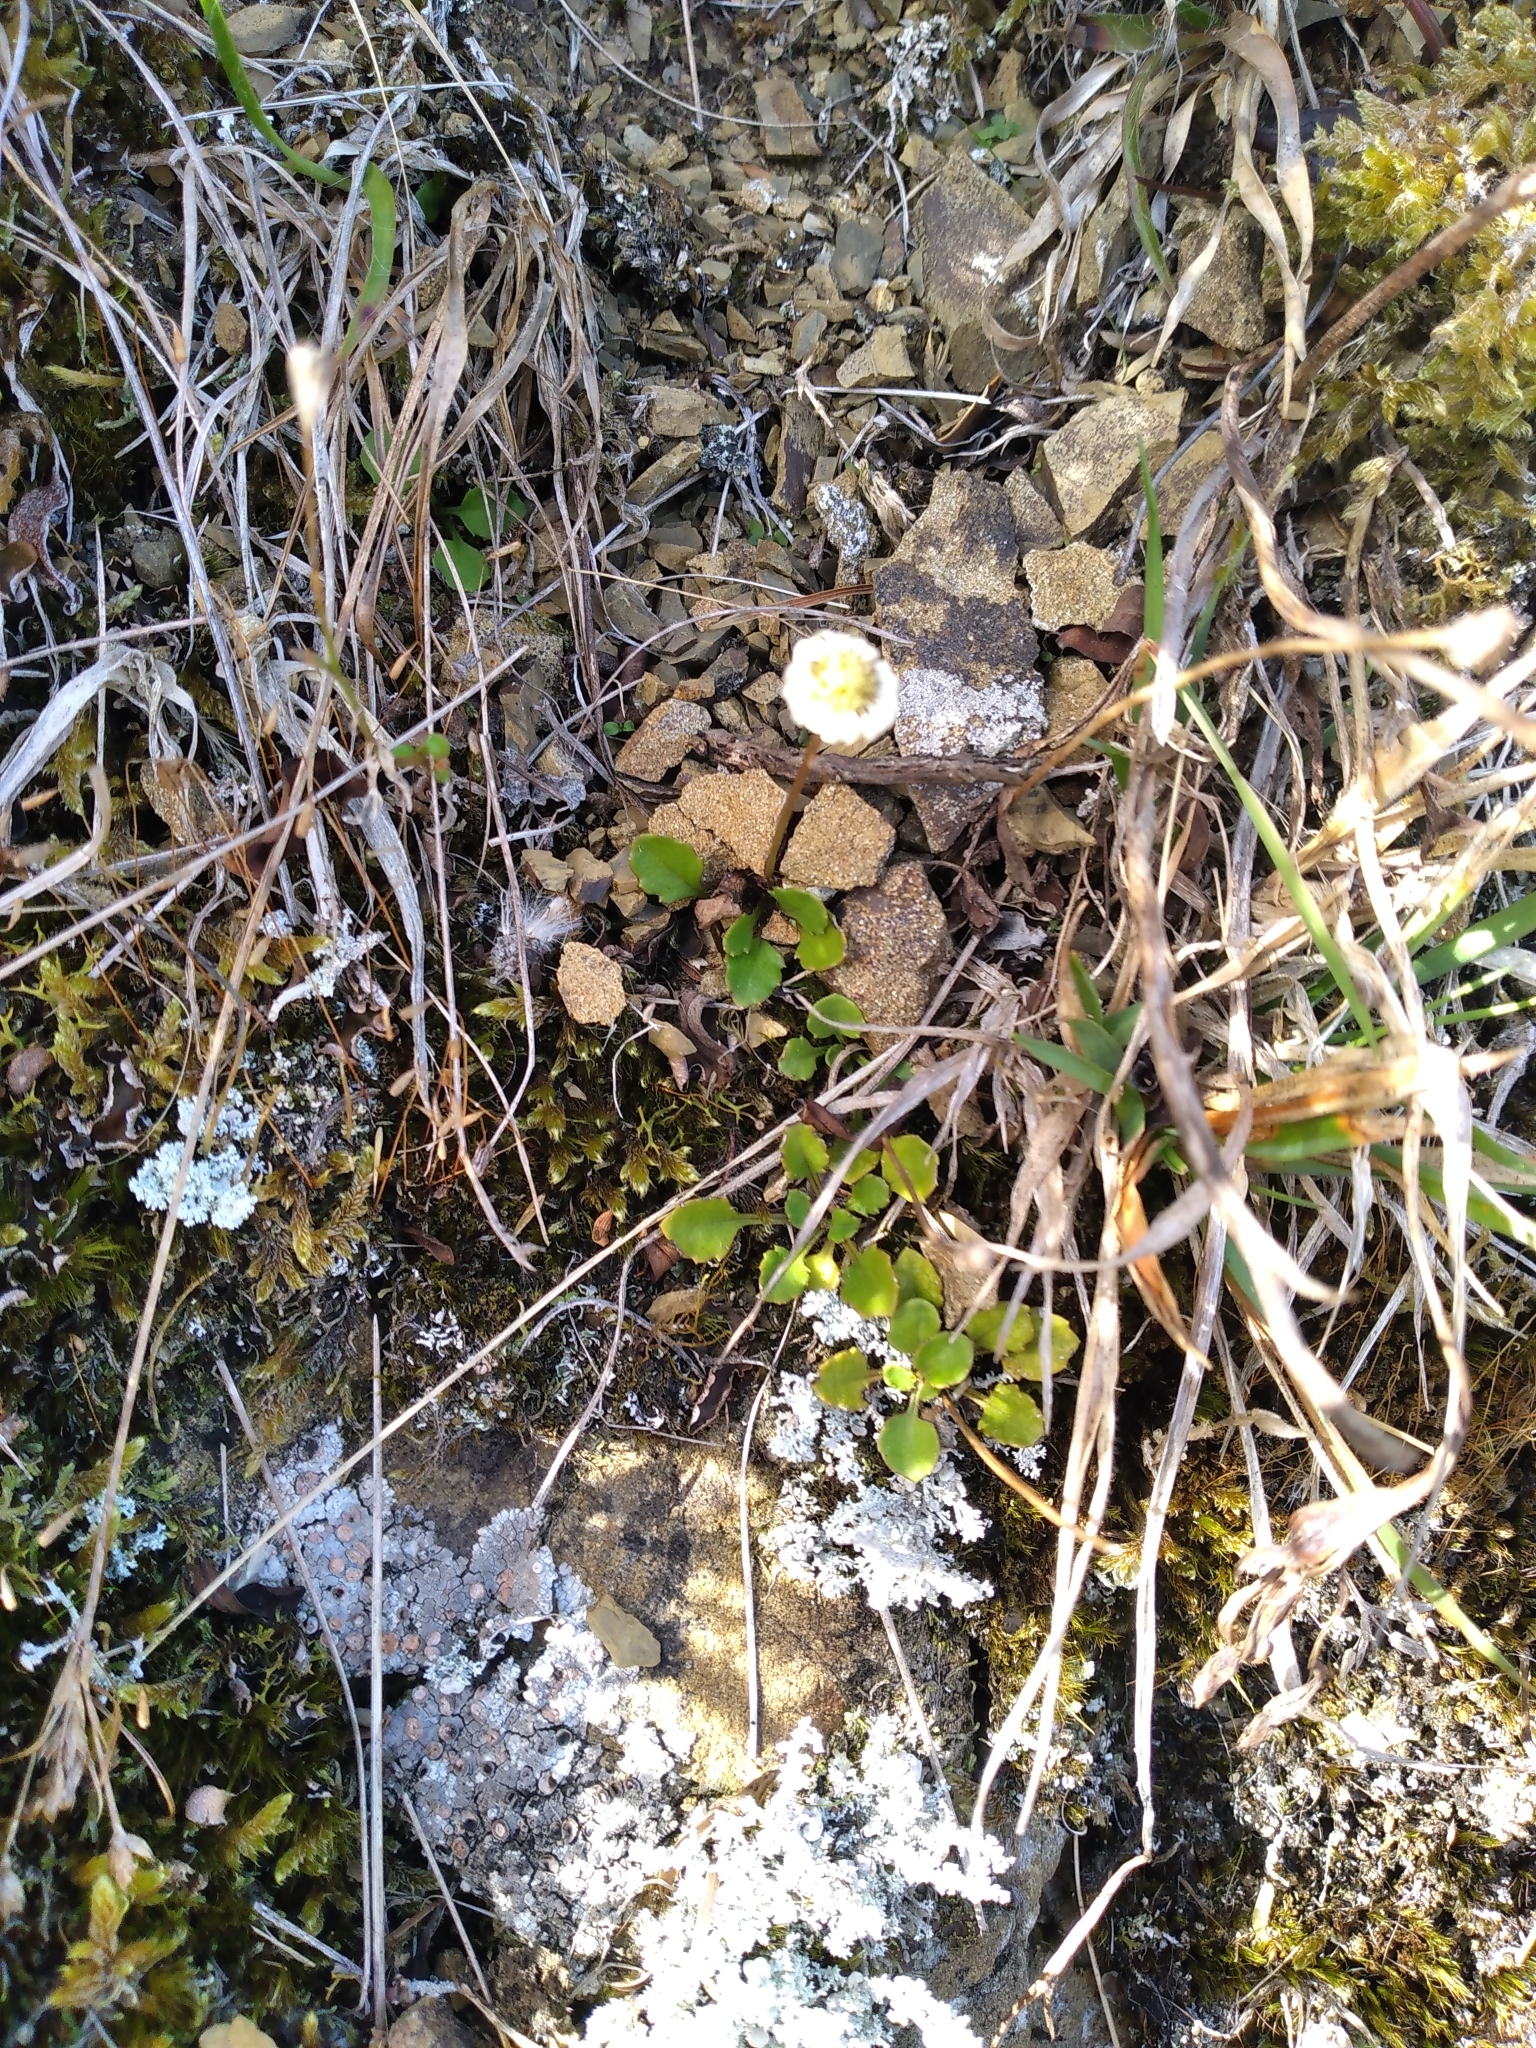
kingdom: Plantae
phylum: Tracheophyta
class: Magnoliopsida
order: Asterales
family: Asteraceae
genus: Lagenophora
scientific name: Lagenophora pumila
